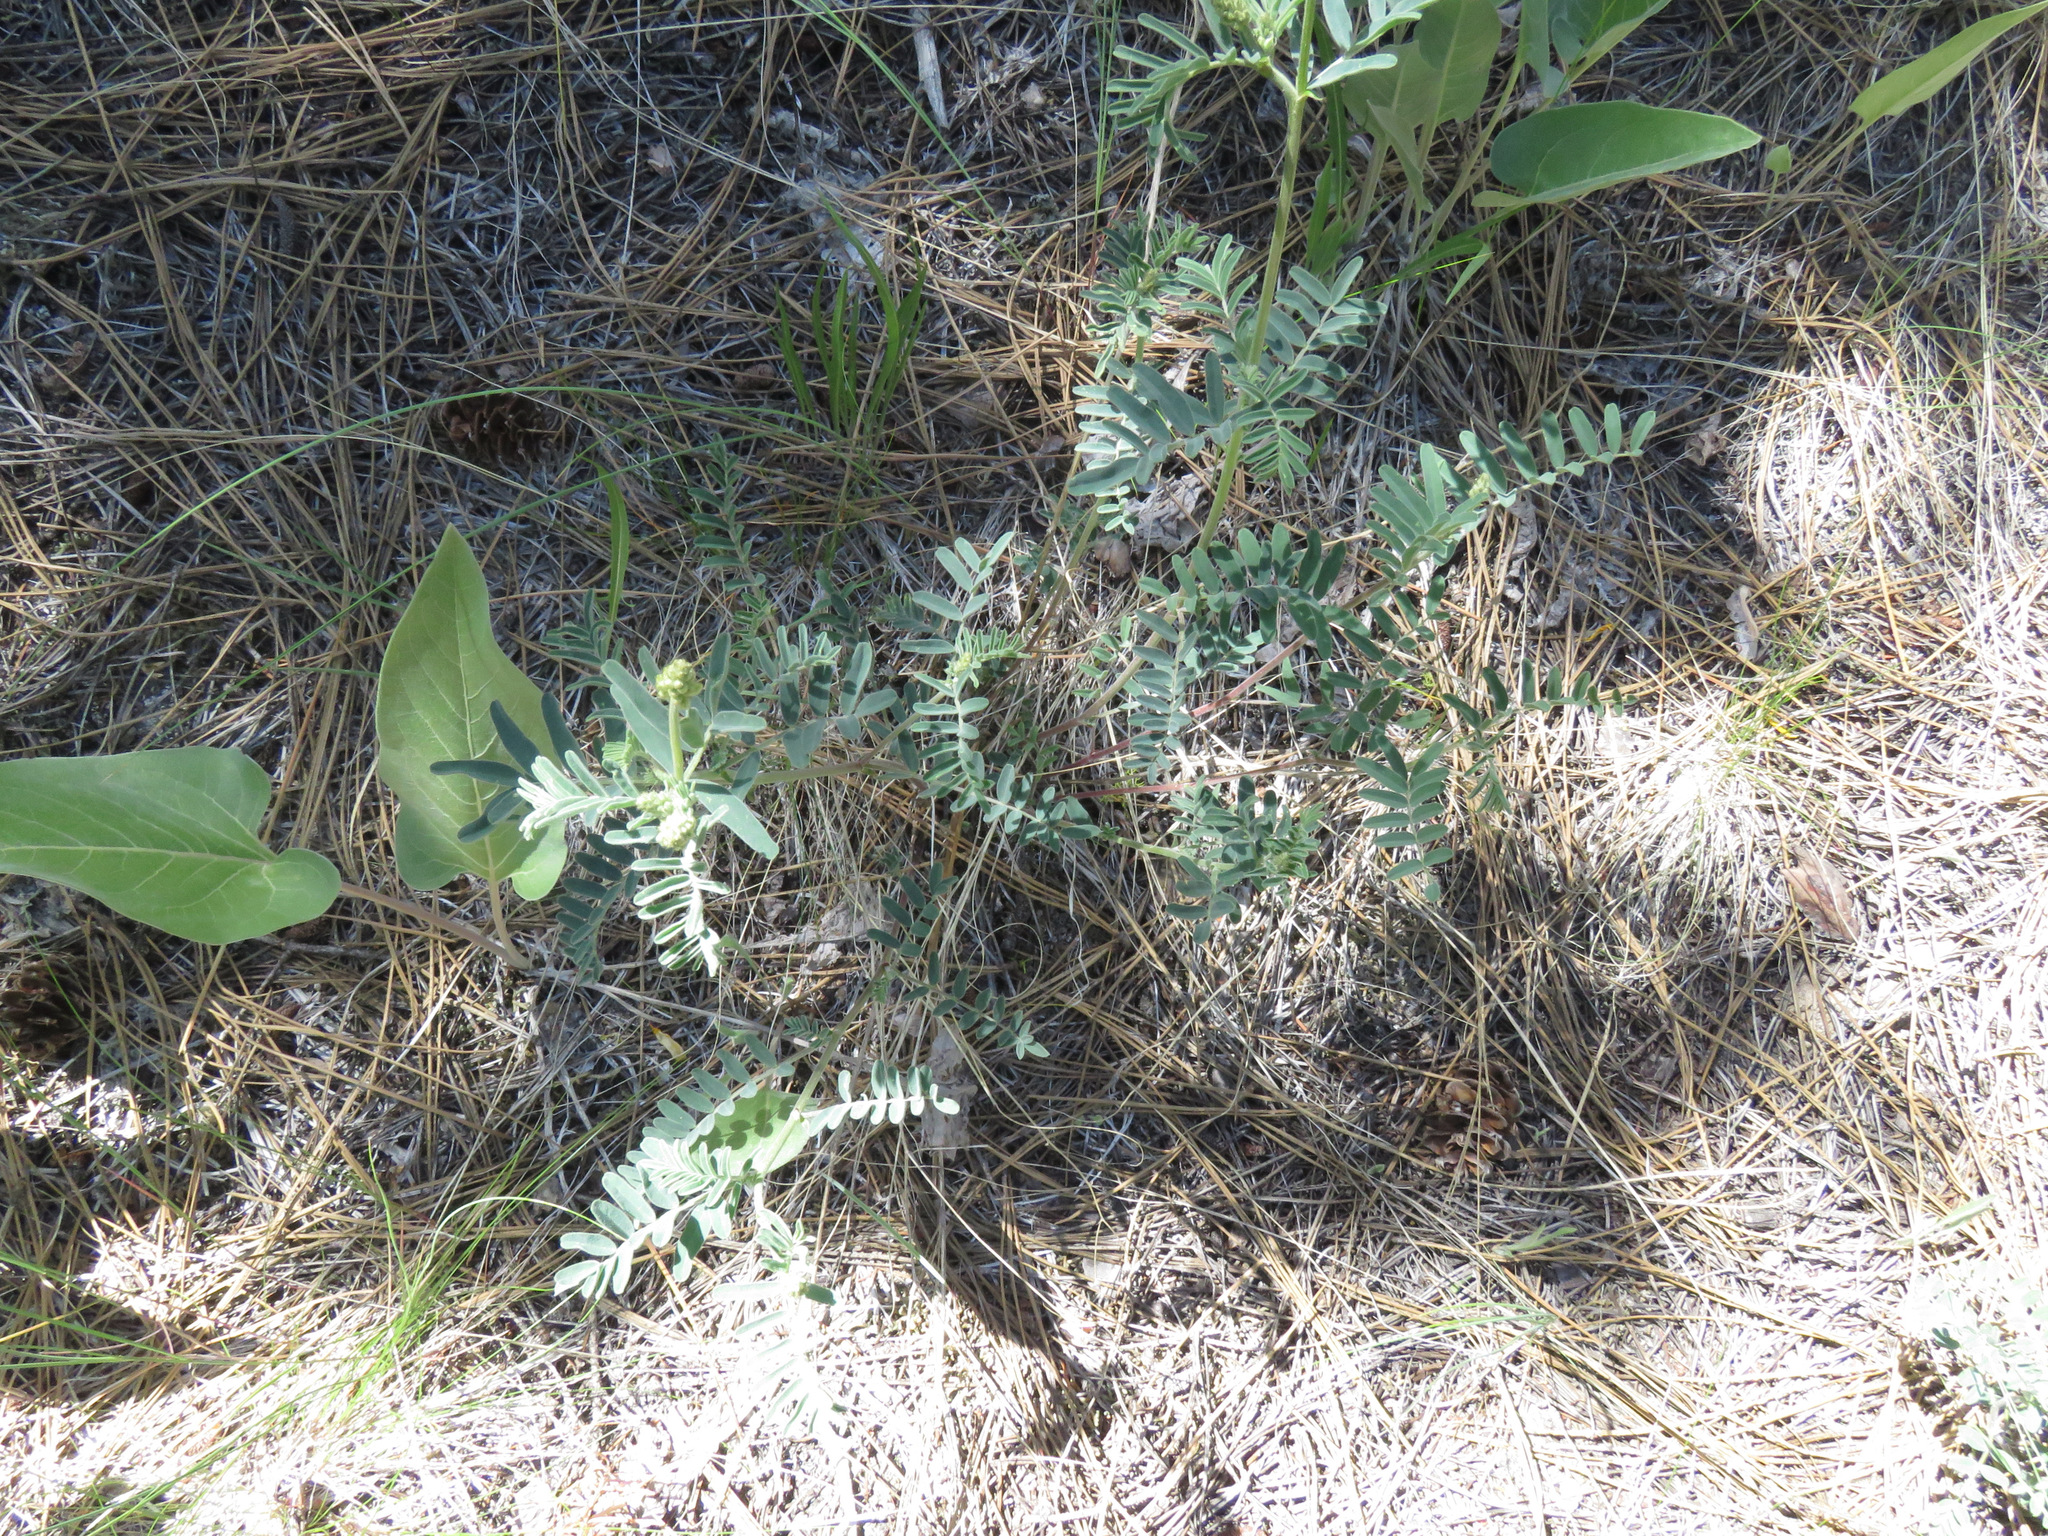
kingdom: Plantae
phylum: Tracheophyta
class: Magnoliopsida
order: Fabales
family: Fabaceae
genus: Astragalus
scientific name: Astragalus collinus
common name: Hill milk-vetch
